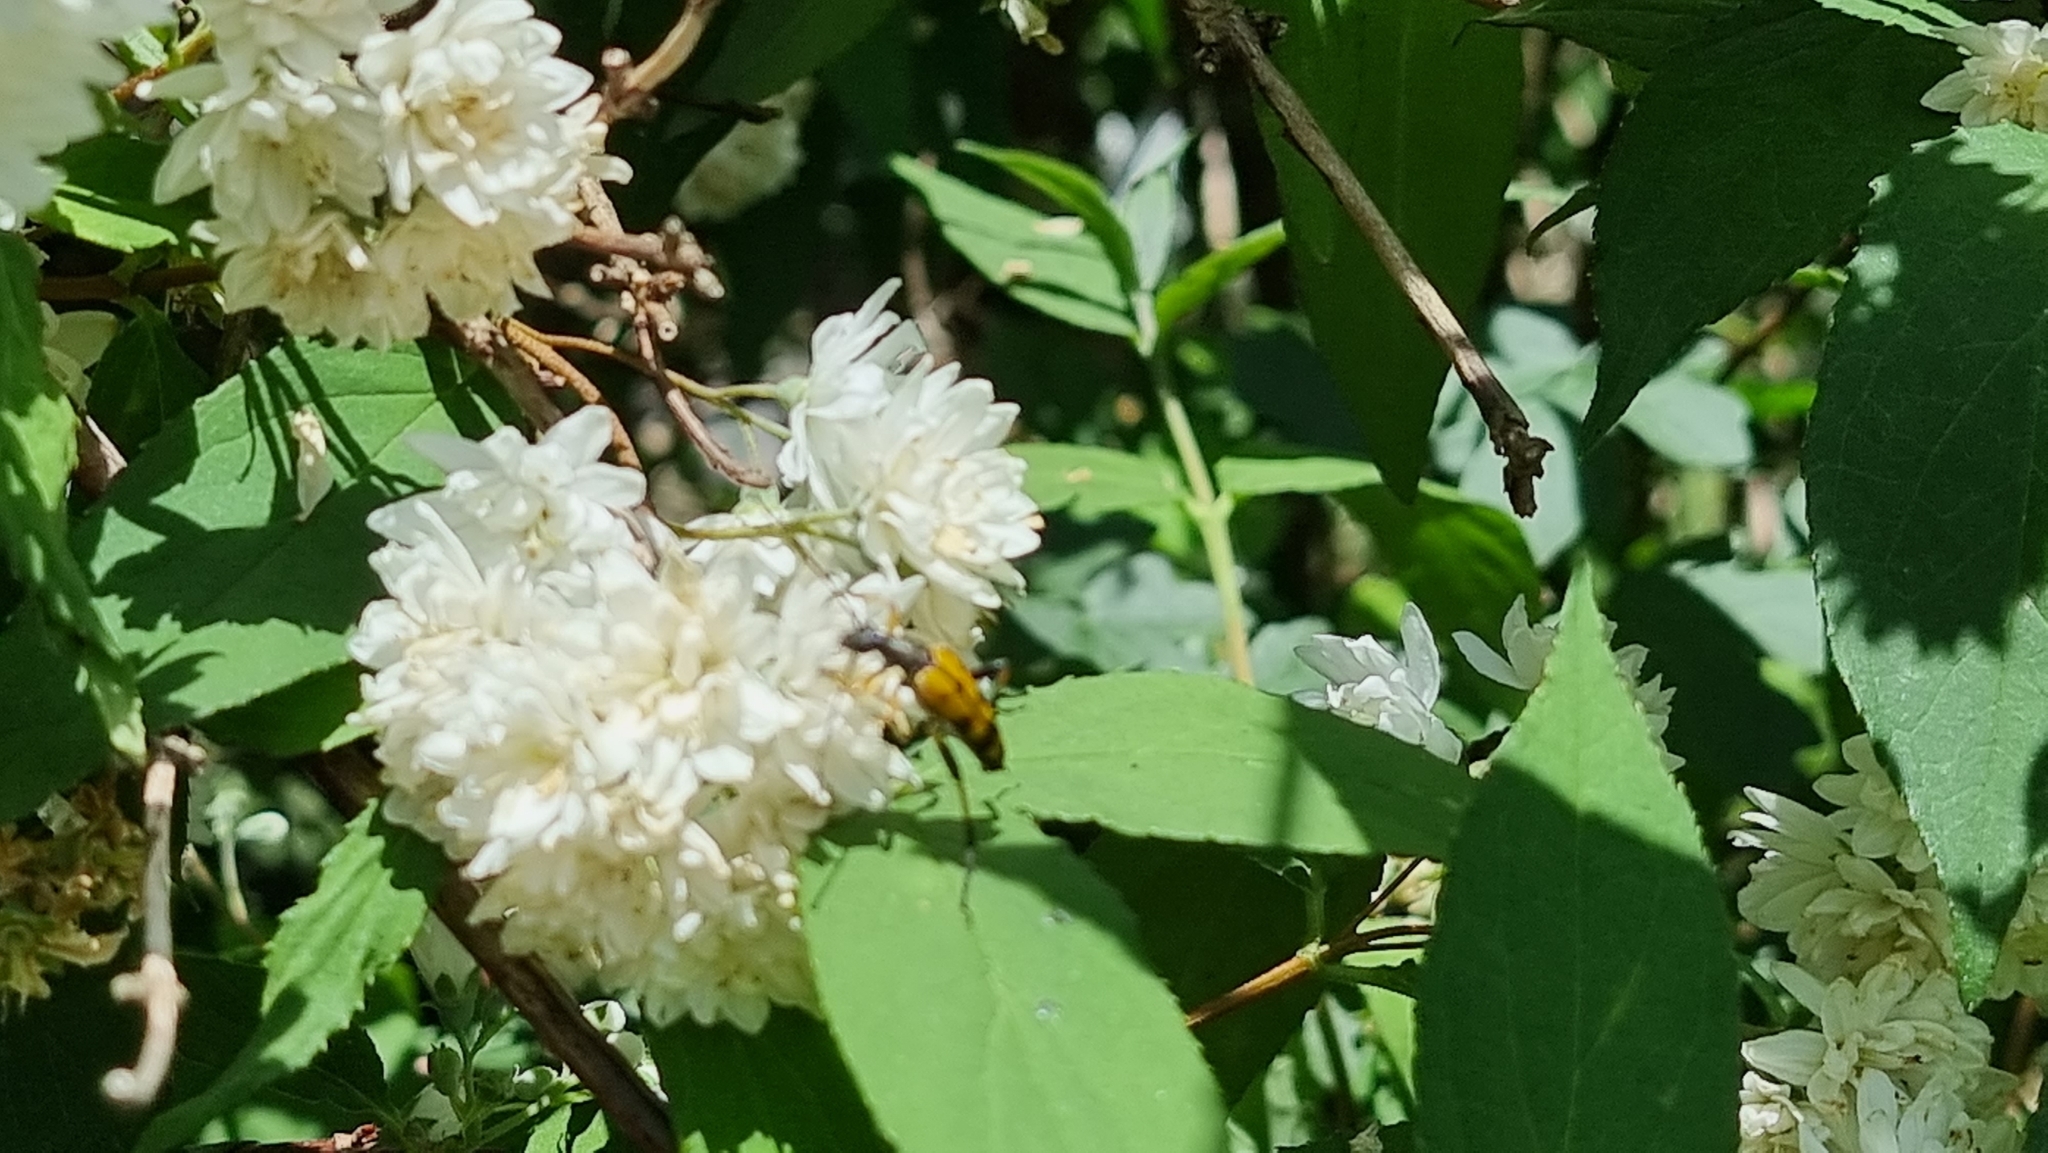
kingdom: Animalia
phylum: Arthropoda
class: Insecta
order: Coleoptera
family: Cerambycidae
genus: Rutpela
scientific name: Rutpela maculata
